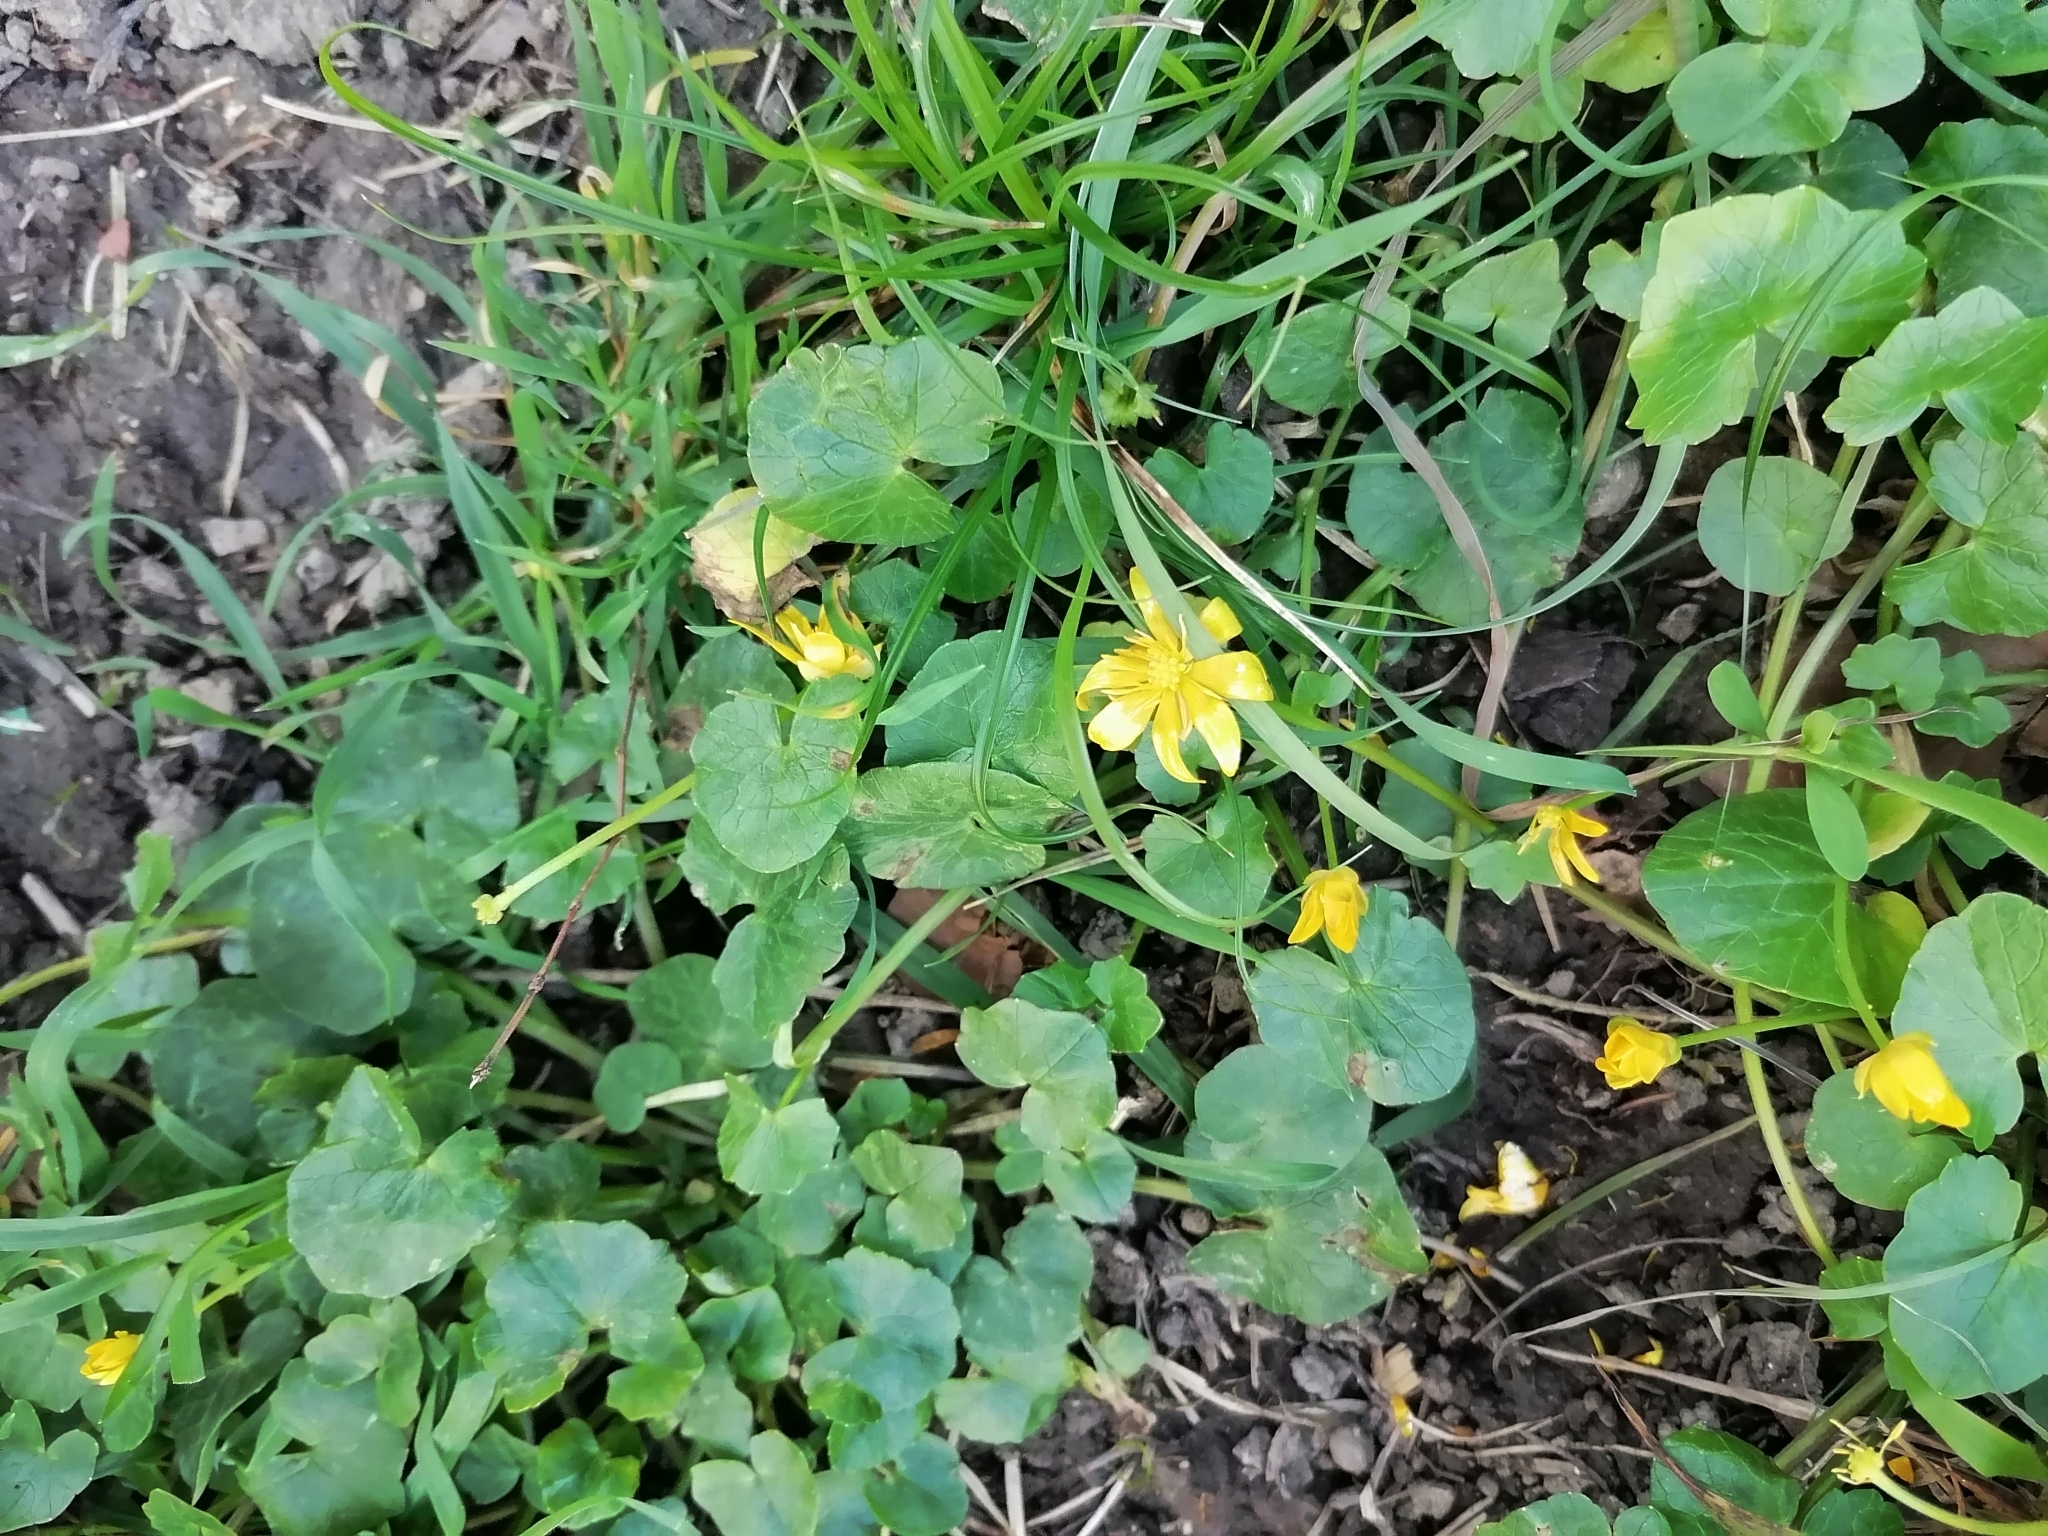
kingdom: Plantae
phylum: Tracheophyta
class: Magnoliopsida
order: Ranunculales
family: Ranunculaceae
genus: Ficaria
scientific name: Ficaria verna
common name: Lesser celandine
